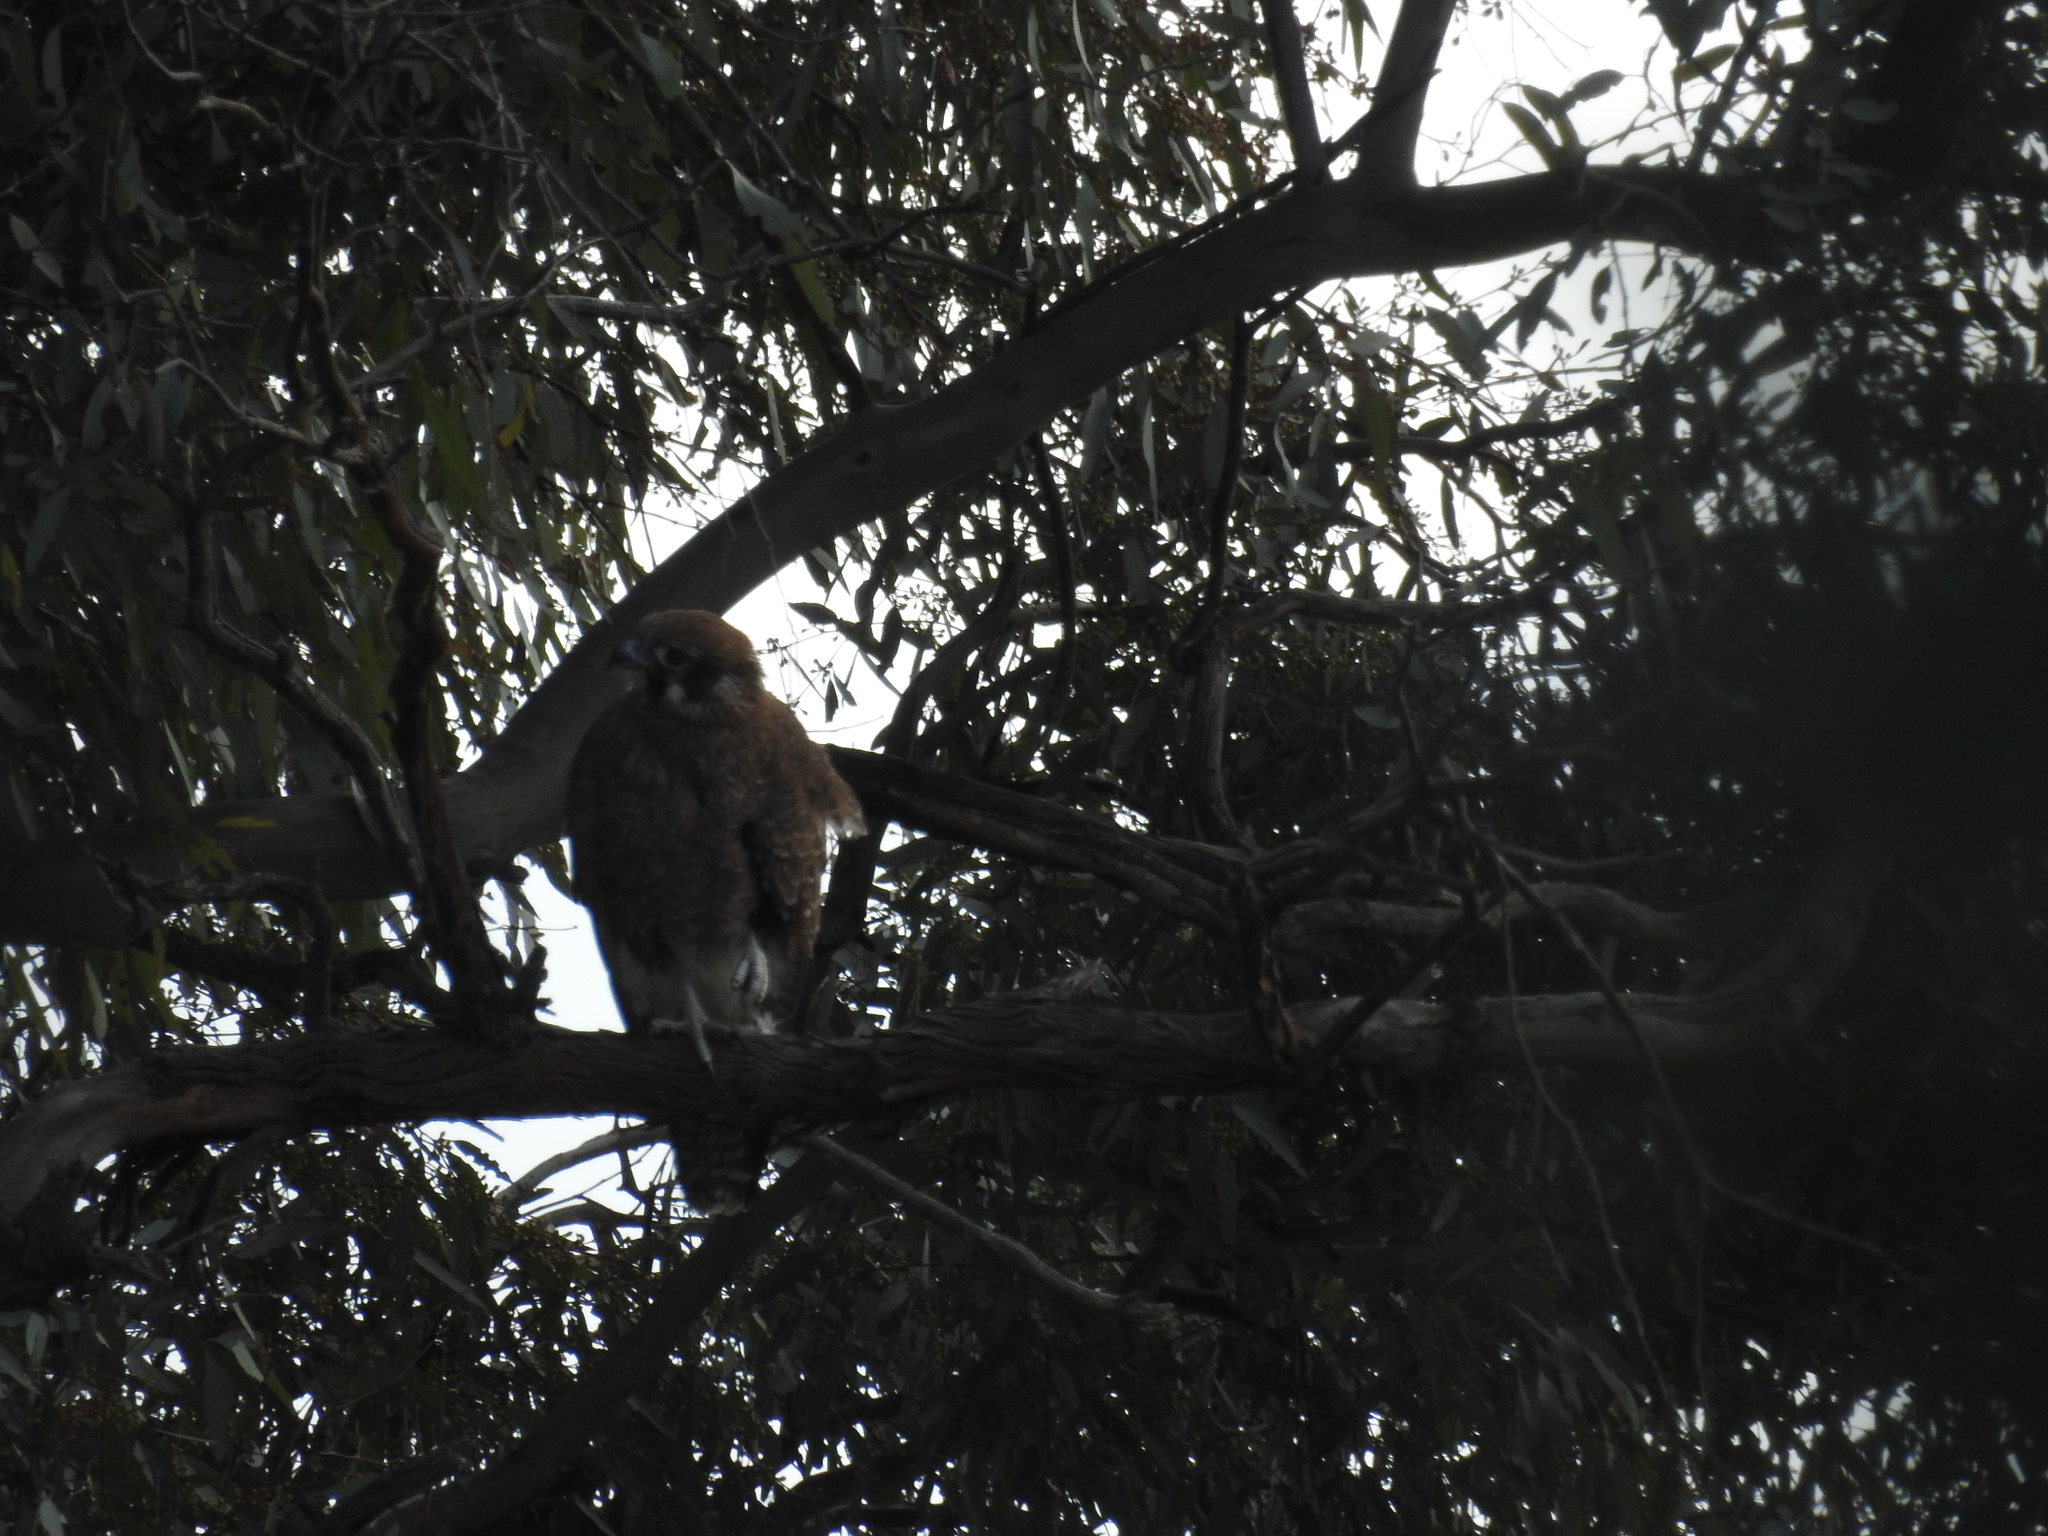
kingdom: Animalia
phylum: Chordata
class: Aves
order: Falconiformes
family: Falconidae
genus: Falco
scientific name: Falco berigora
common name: Brown falcon
